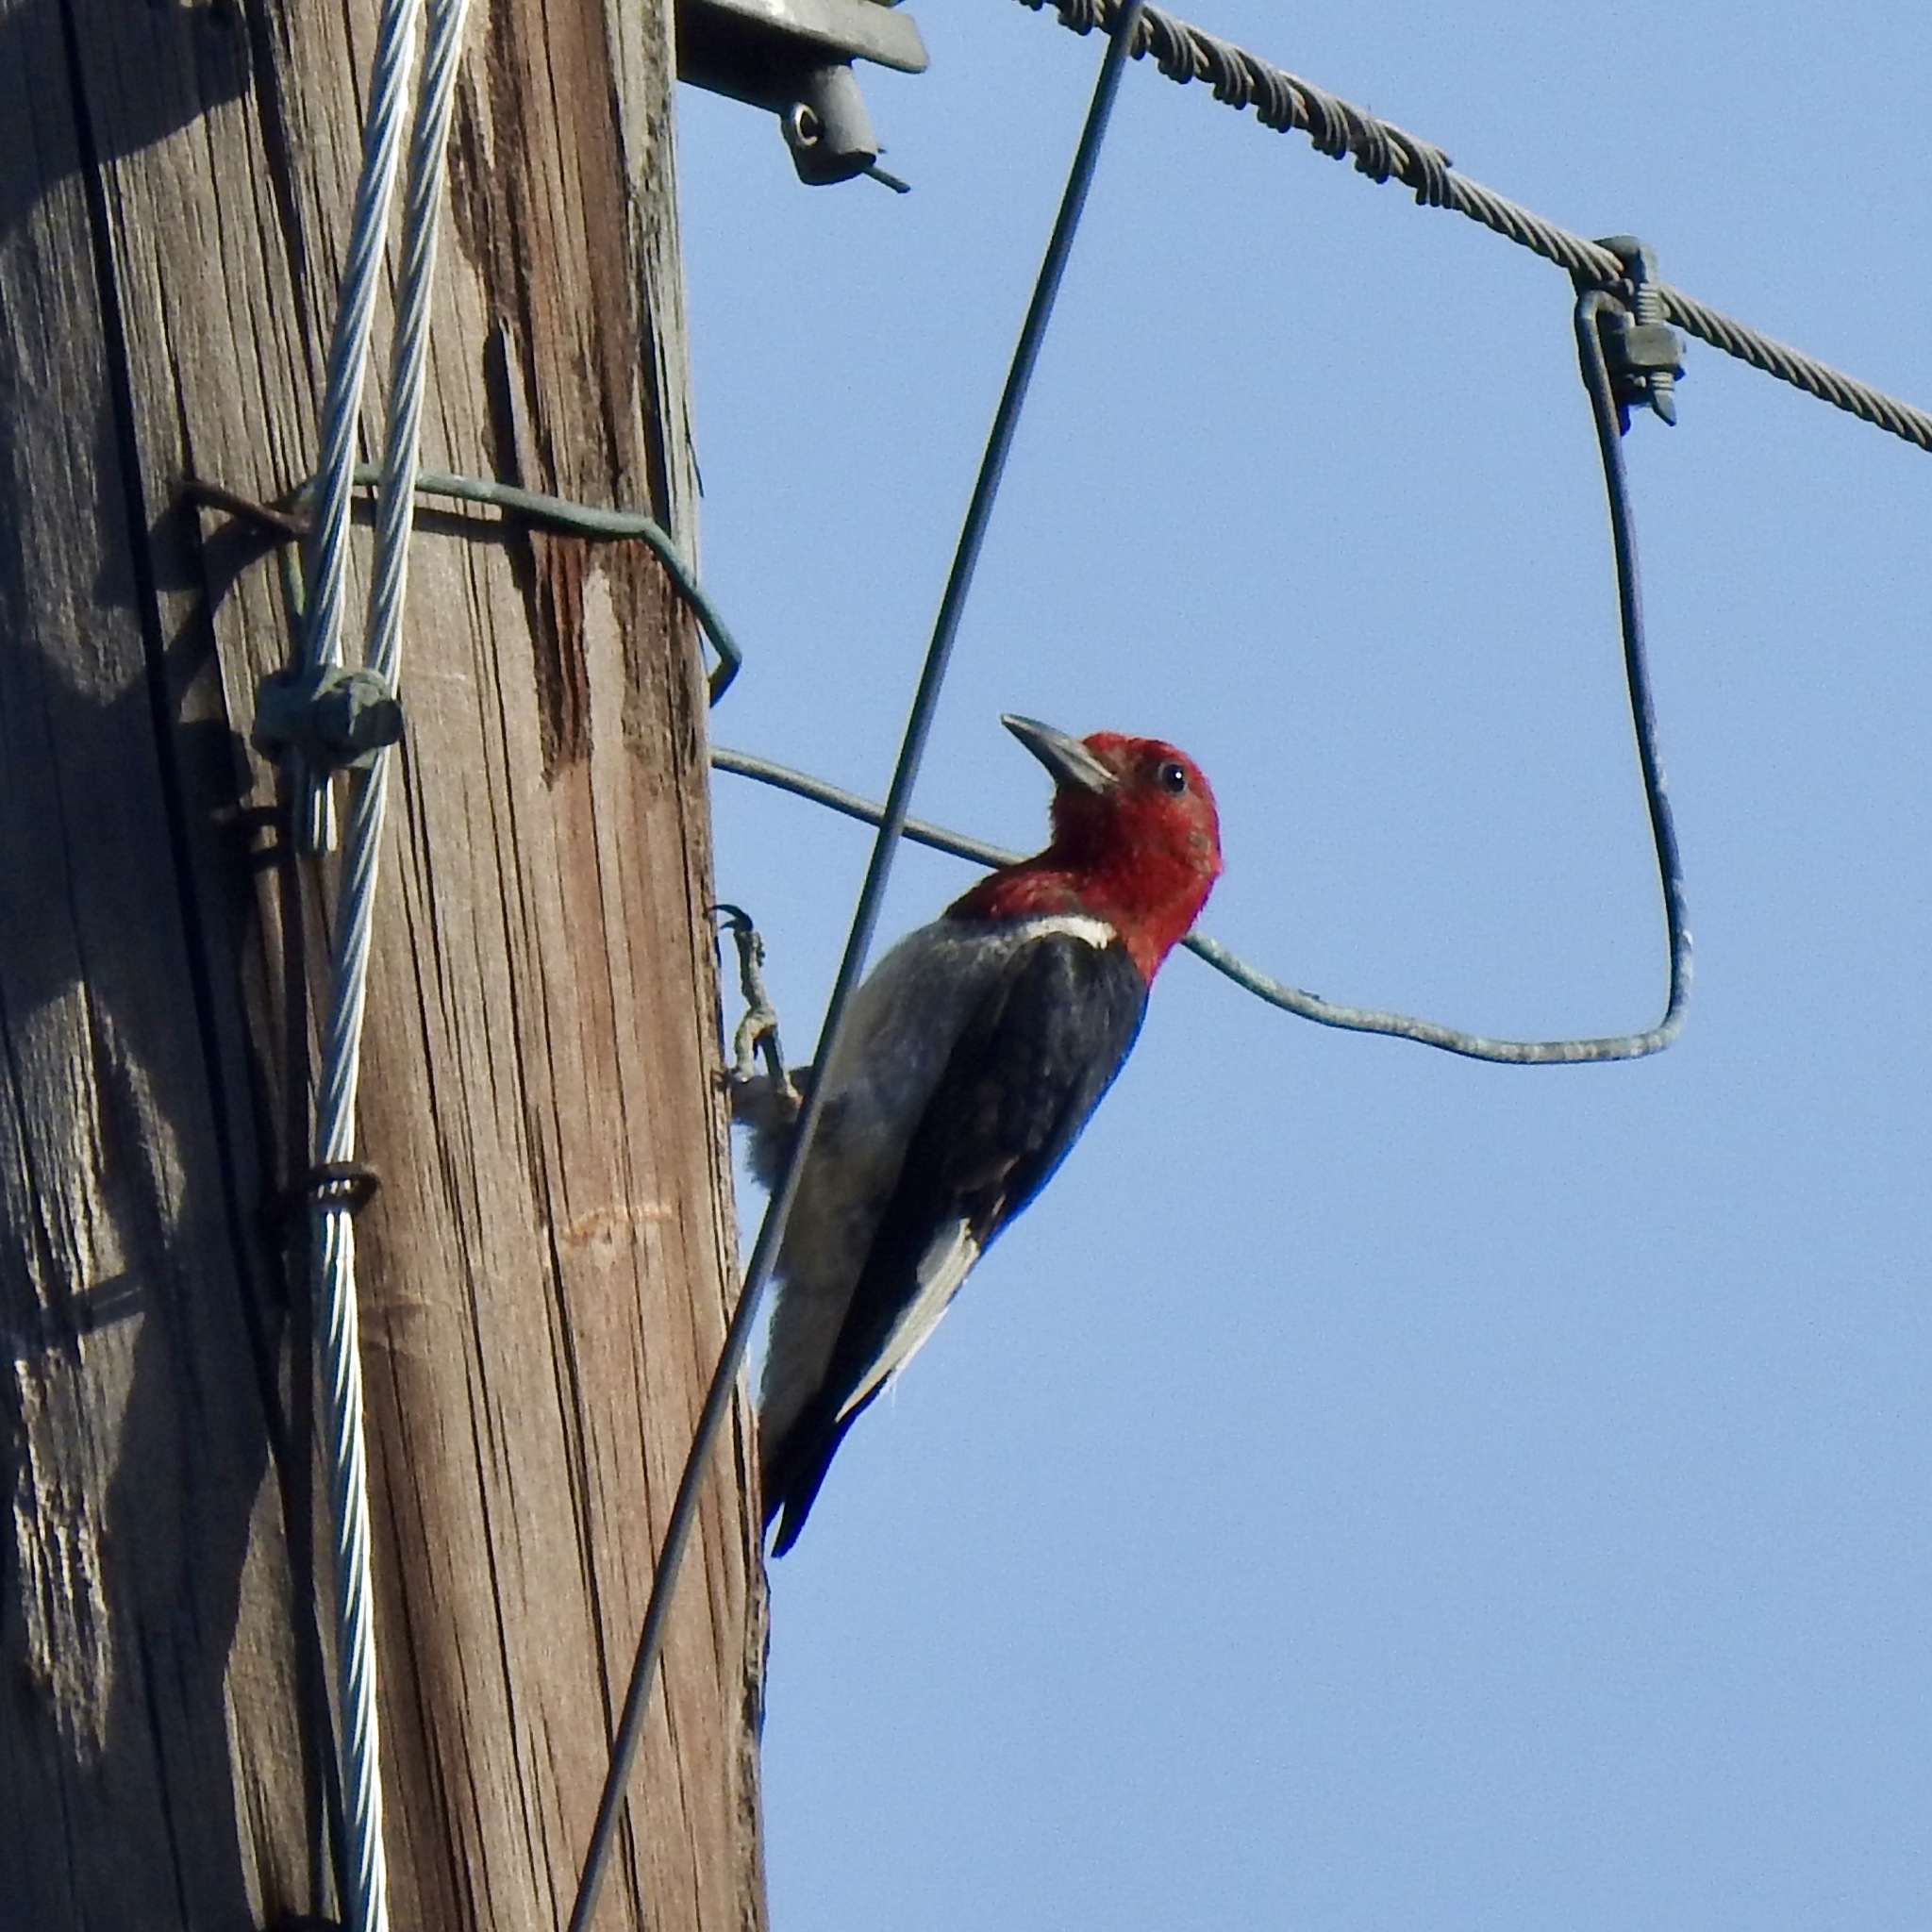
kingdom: Animalia
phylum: Chordata
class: Aves
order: Piciformes
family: Picidae
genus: Melanerpes
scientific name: Melanerpes erythrocephalus
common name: Red-headed woodpecker
